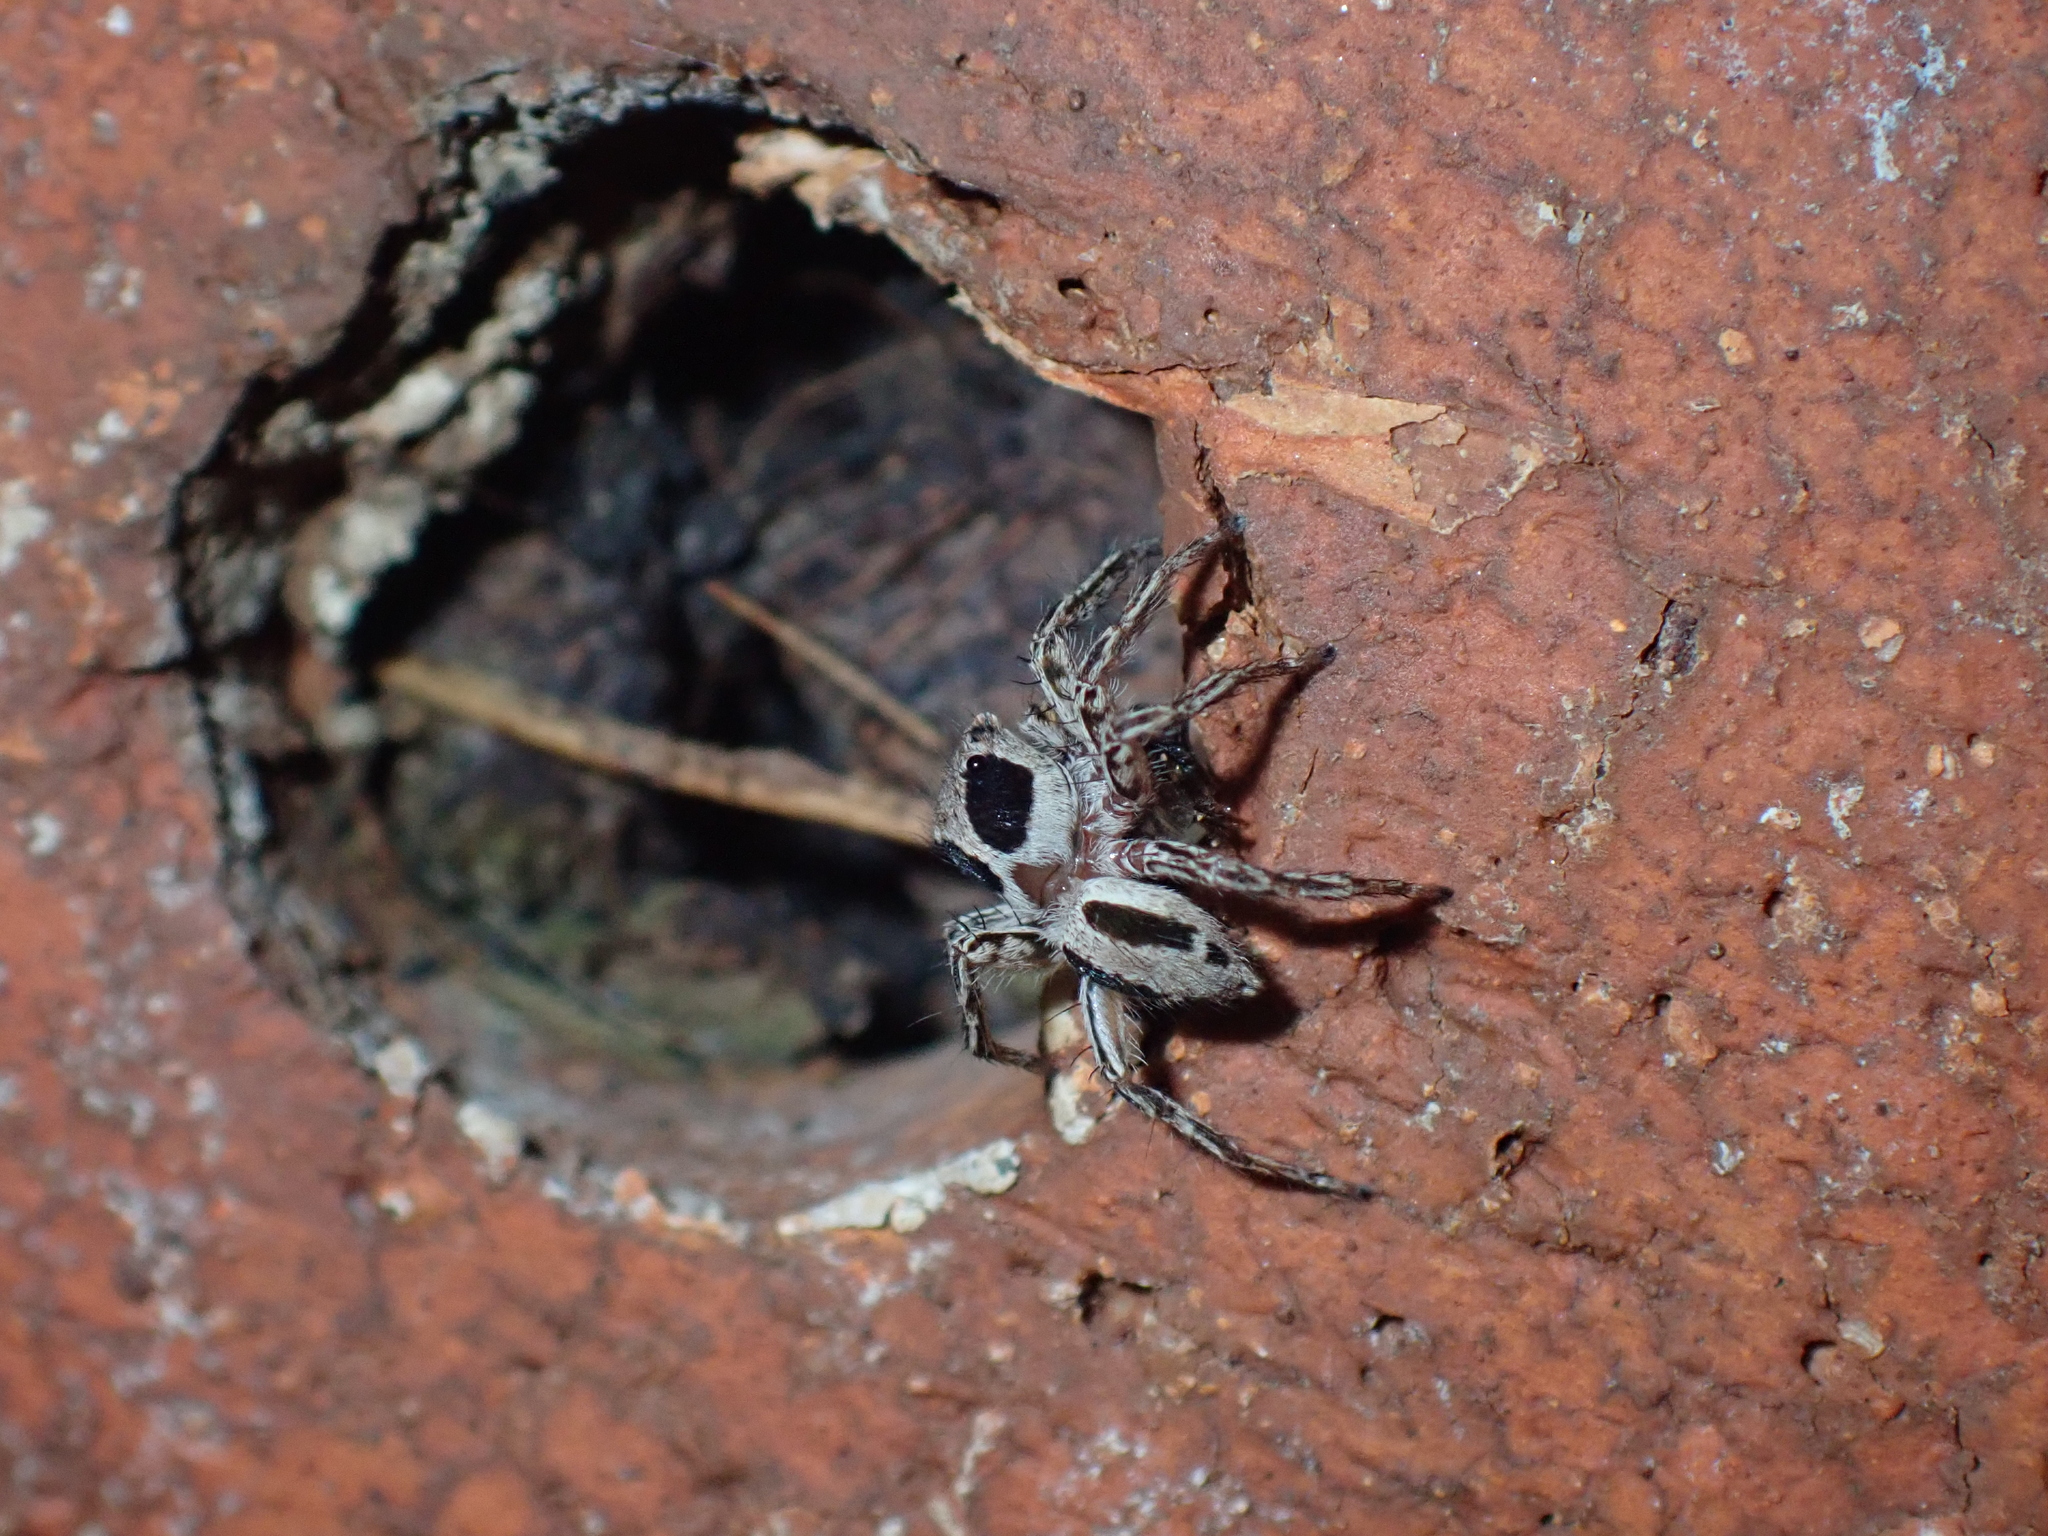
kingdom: Animalia
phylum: Arthropoda
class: Arachnida
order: Araneae
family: Salticidae
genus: Plexippus
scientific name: Plexippus petersi
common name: Jumping spider
